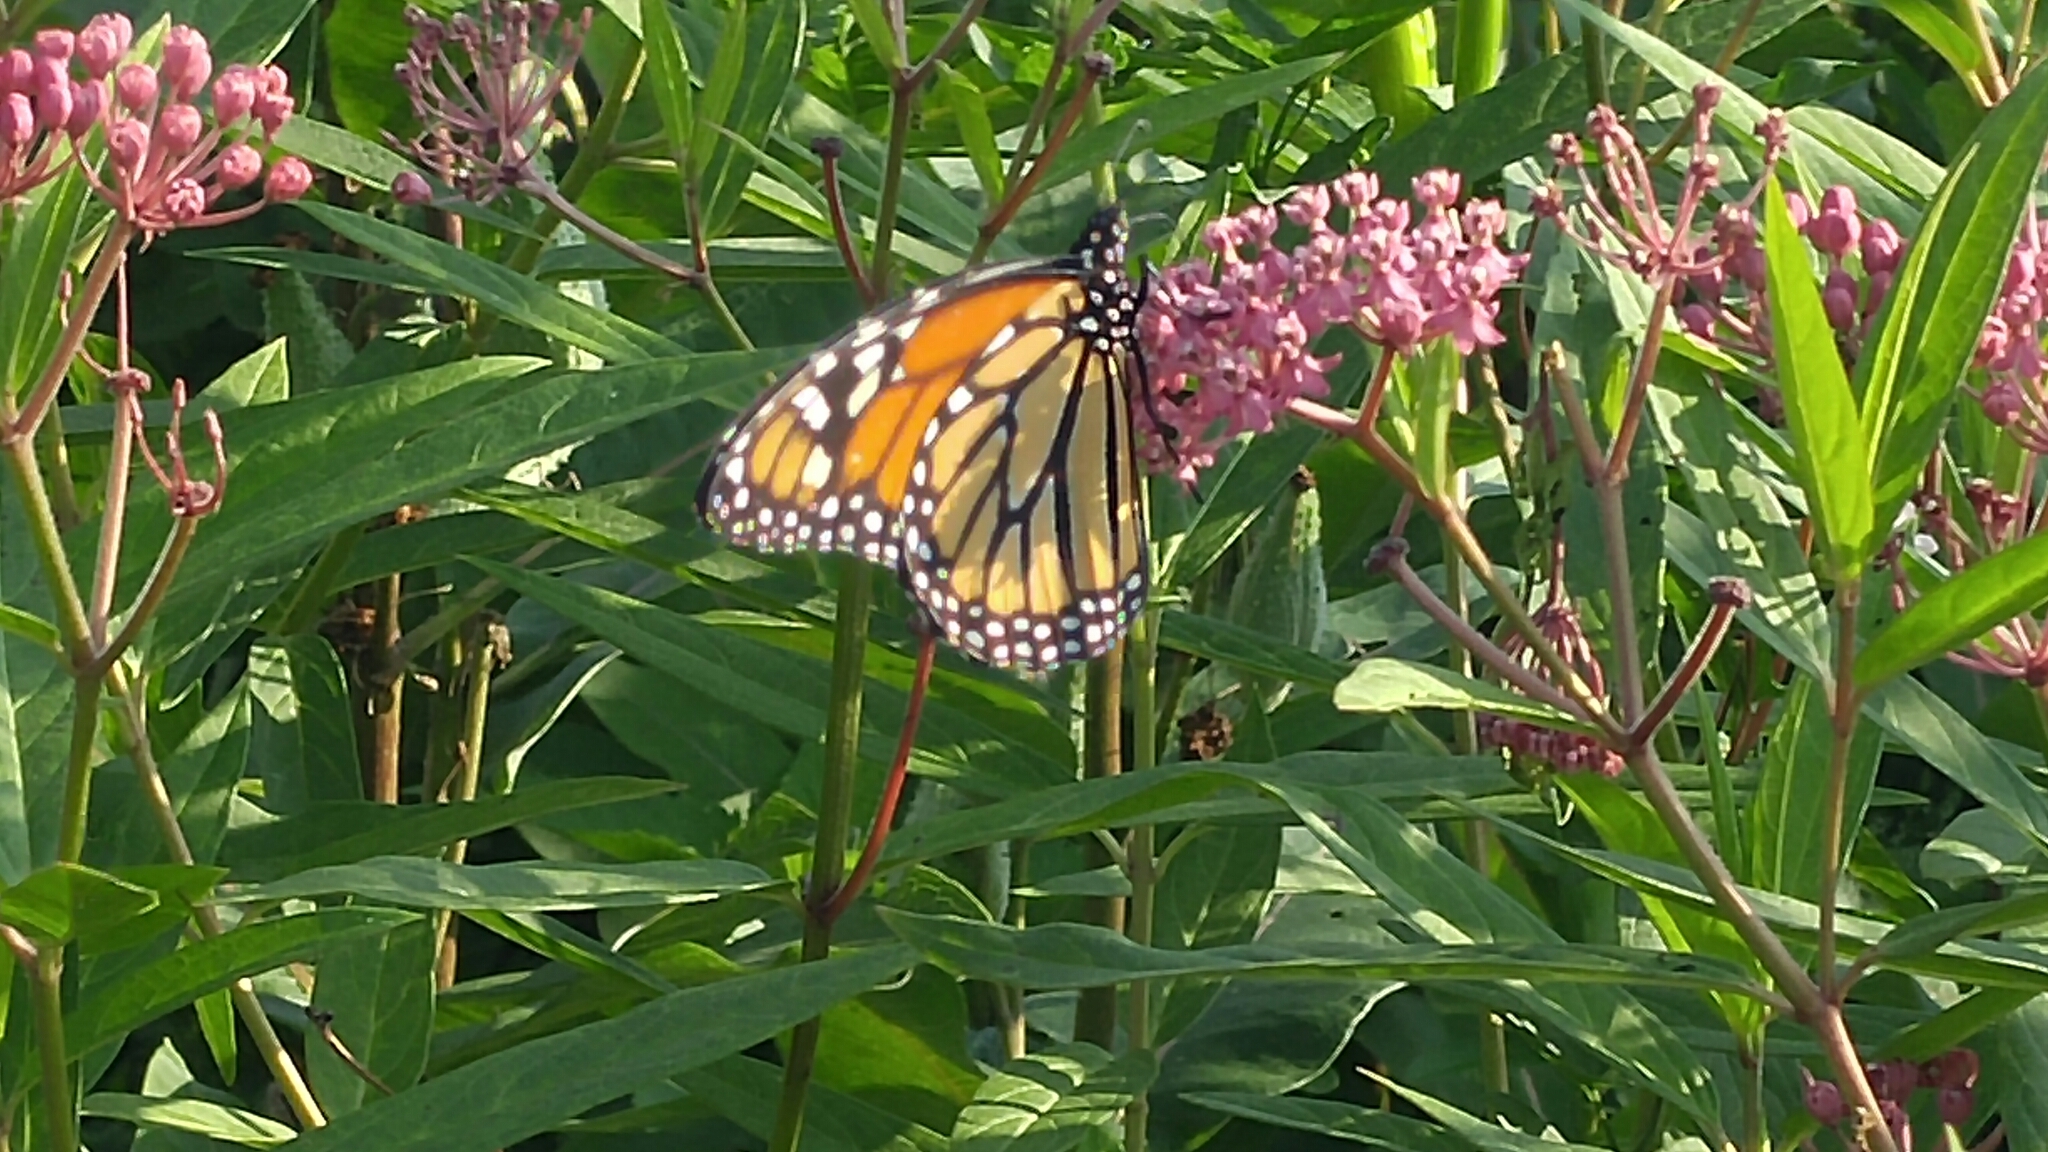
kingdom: Animalia
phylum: Arthropoda
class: Insecta
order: Lepidoptera
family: Nymphalidae
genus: Danaus
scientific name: Danaus plexippus
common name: Monarch
